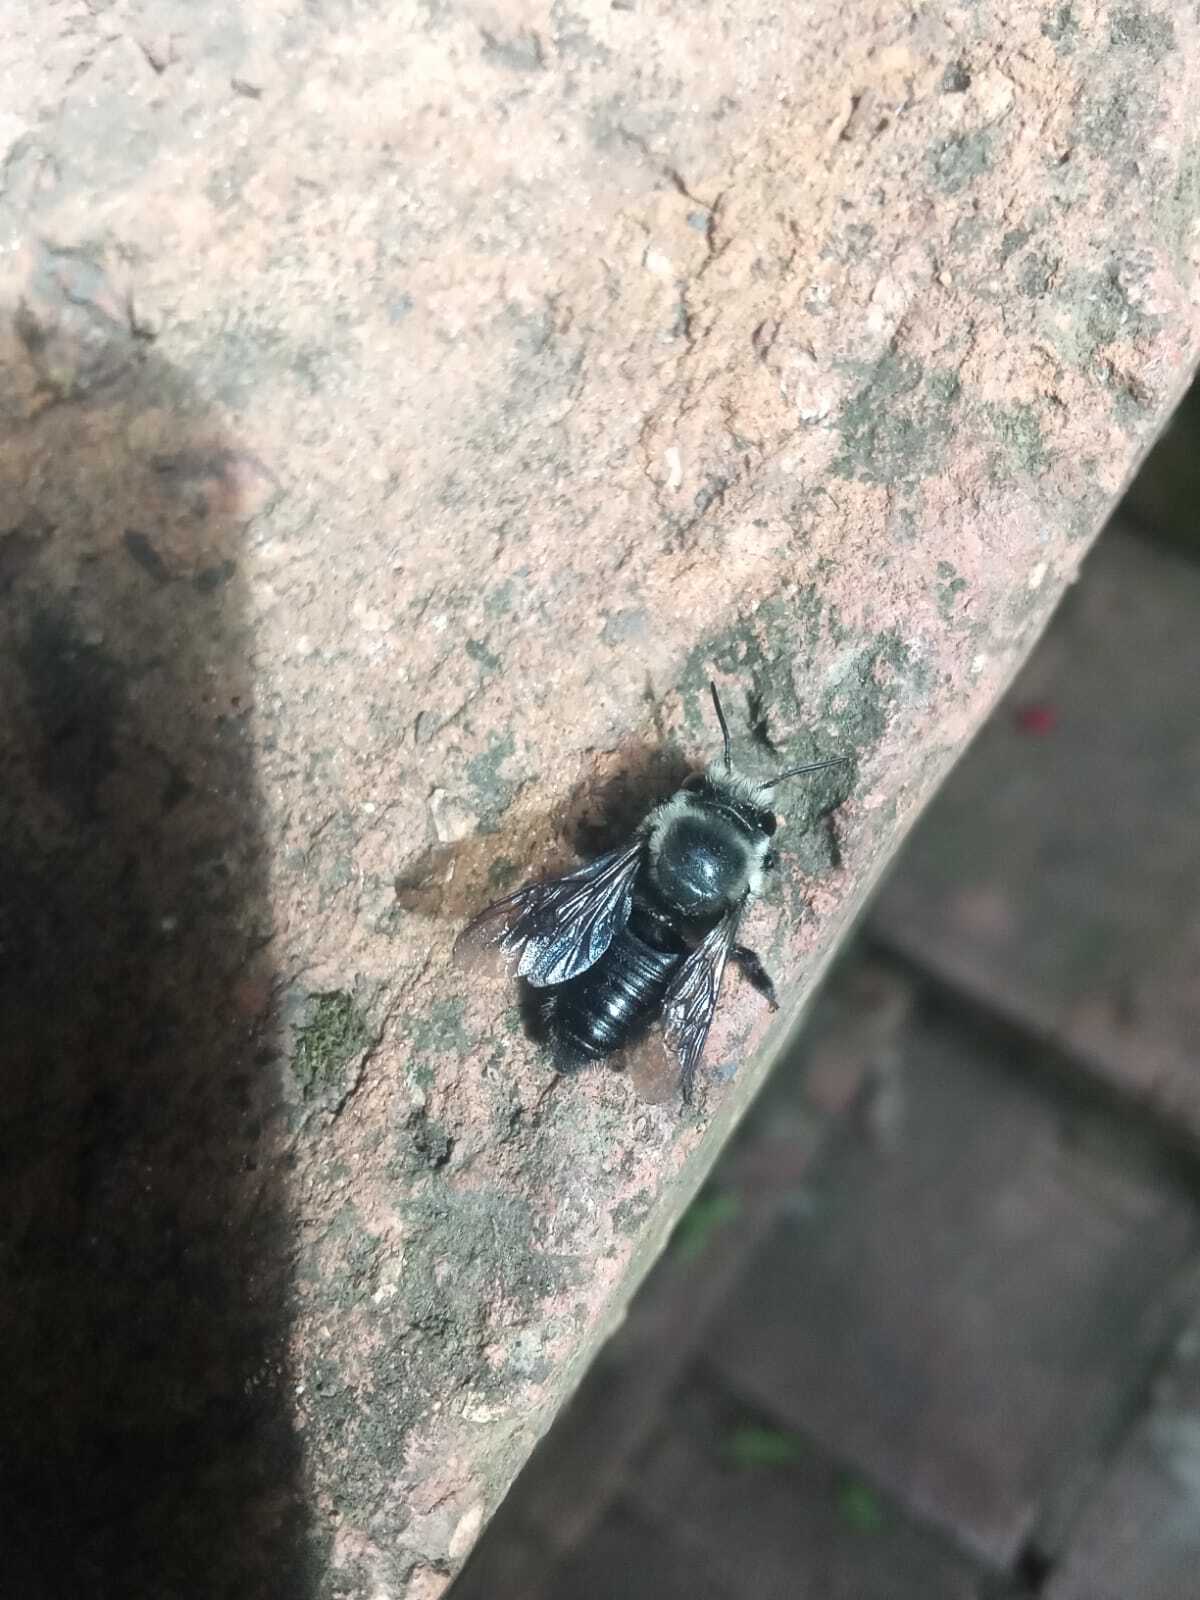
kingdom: Animalia
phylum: Arthropoda
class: Insecta
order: Hymenoptera
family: Megachilidae
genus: Megachile
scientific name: Megachile amparo
